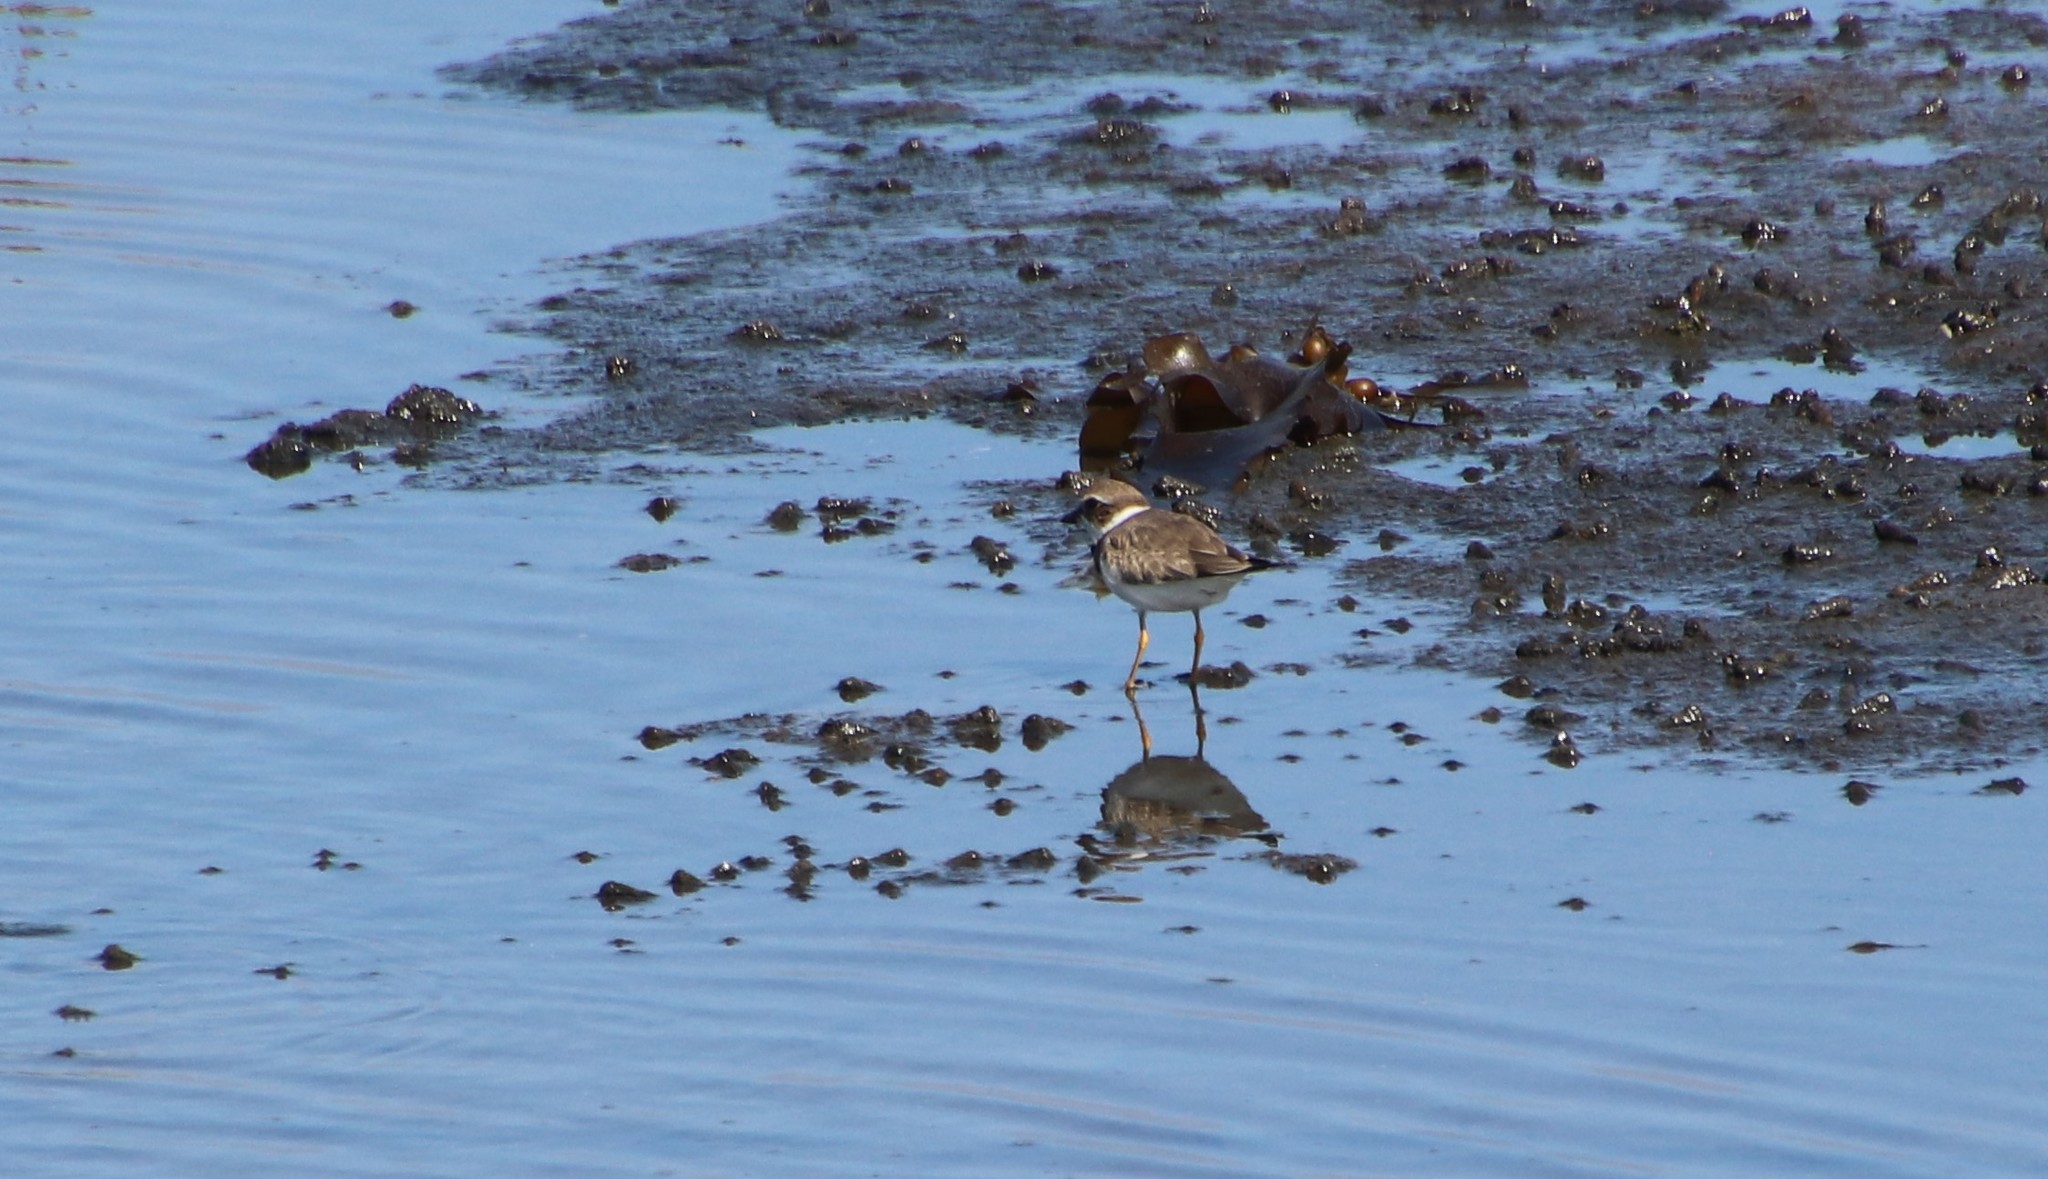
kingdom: Animalia
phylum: Chordata
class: Aves
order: Charadriiformes
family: Charadriidae
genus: Charadrius
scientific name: Charadrius semipalmatus
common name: Semipalmated plover
